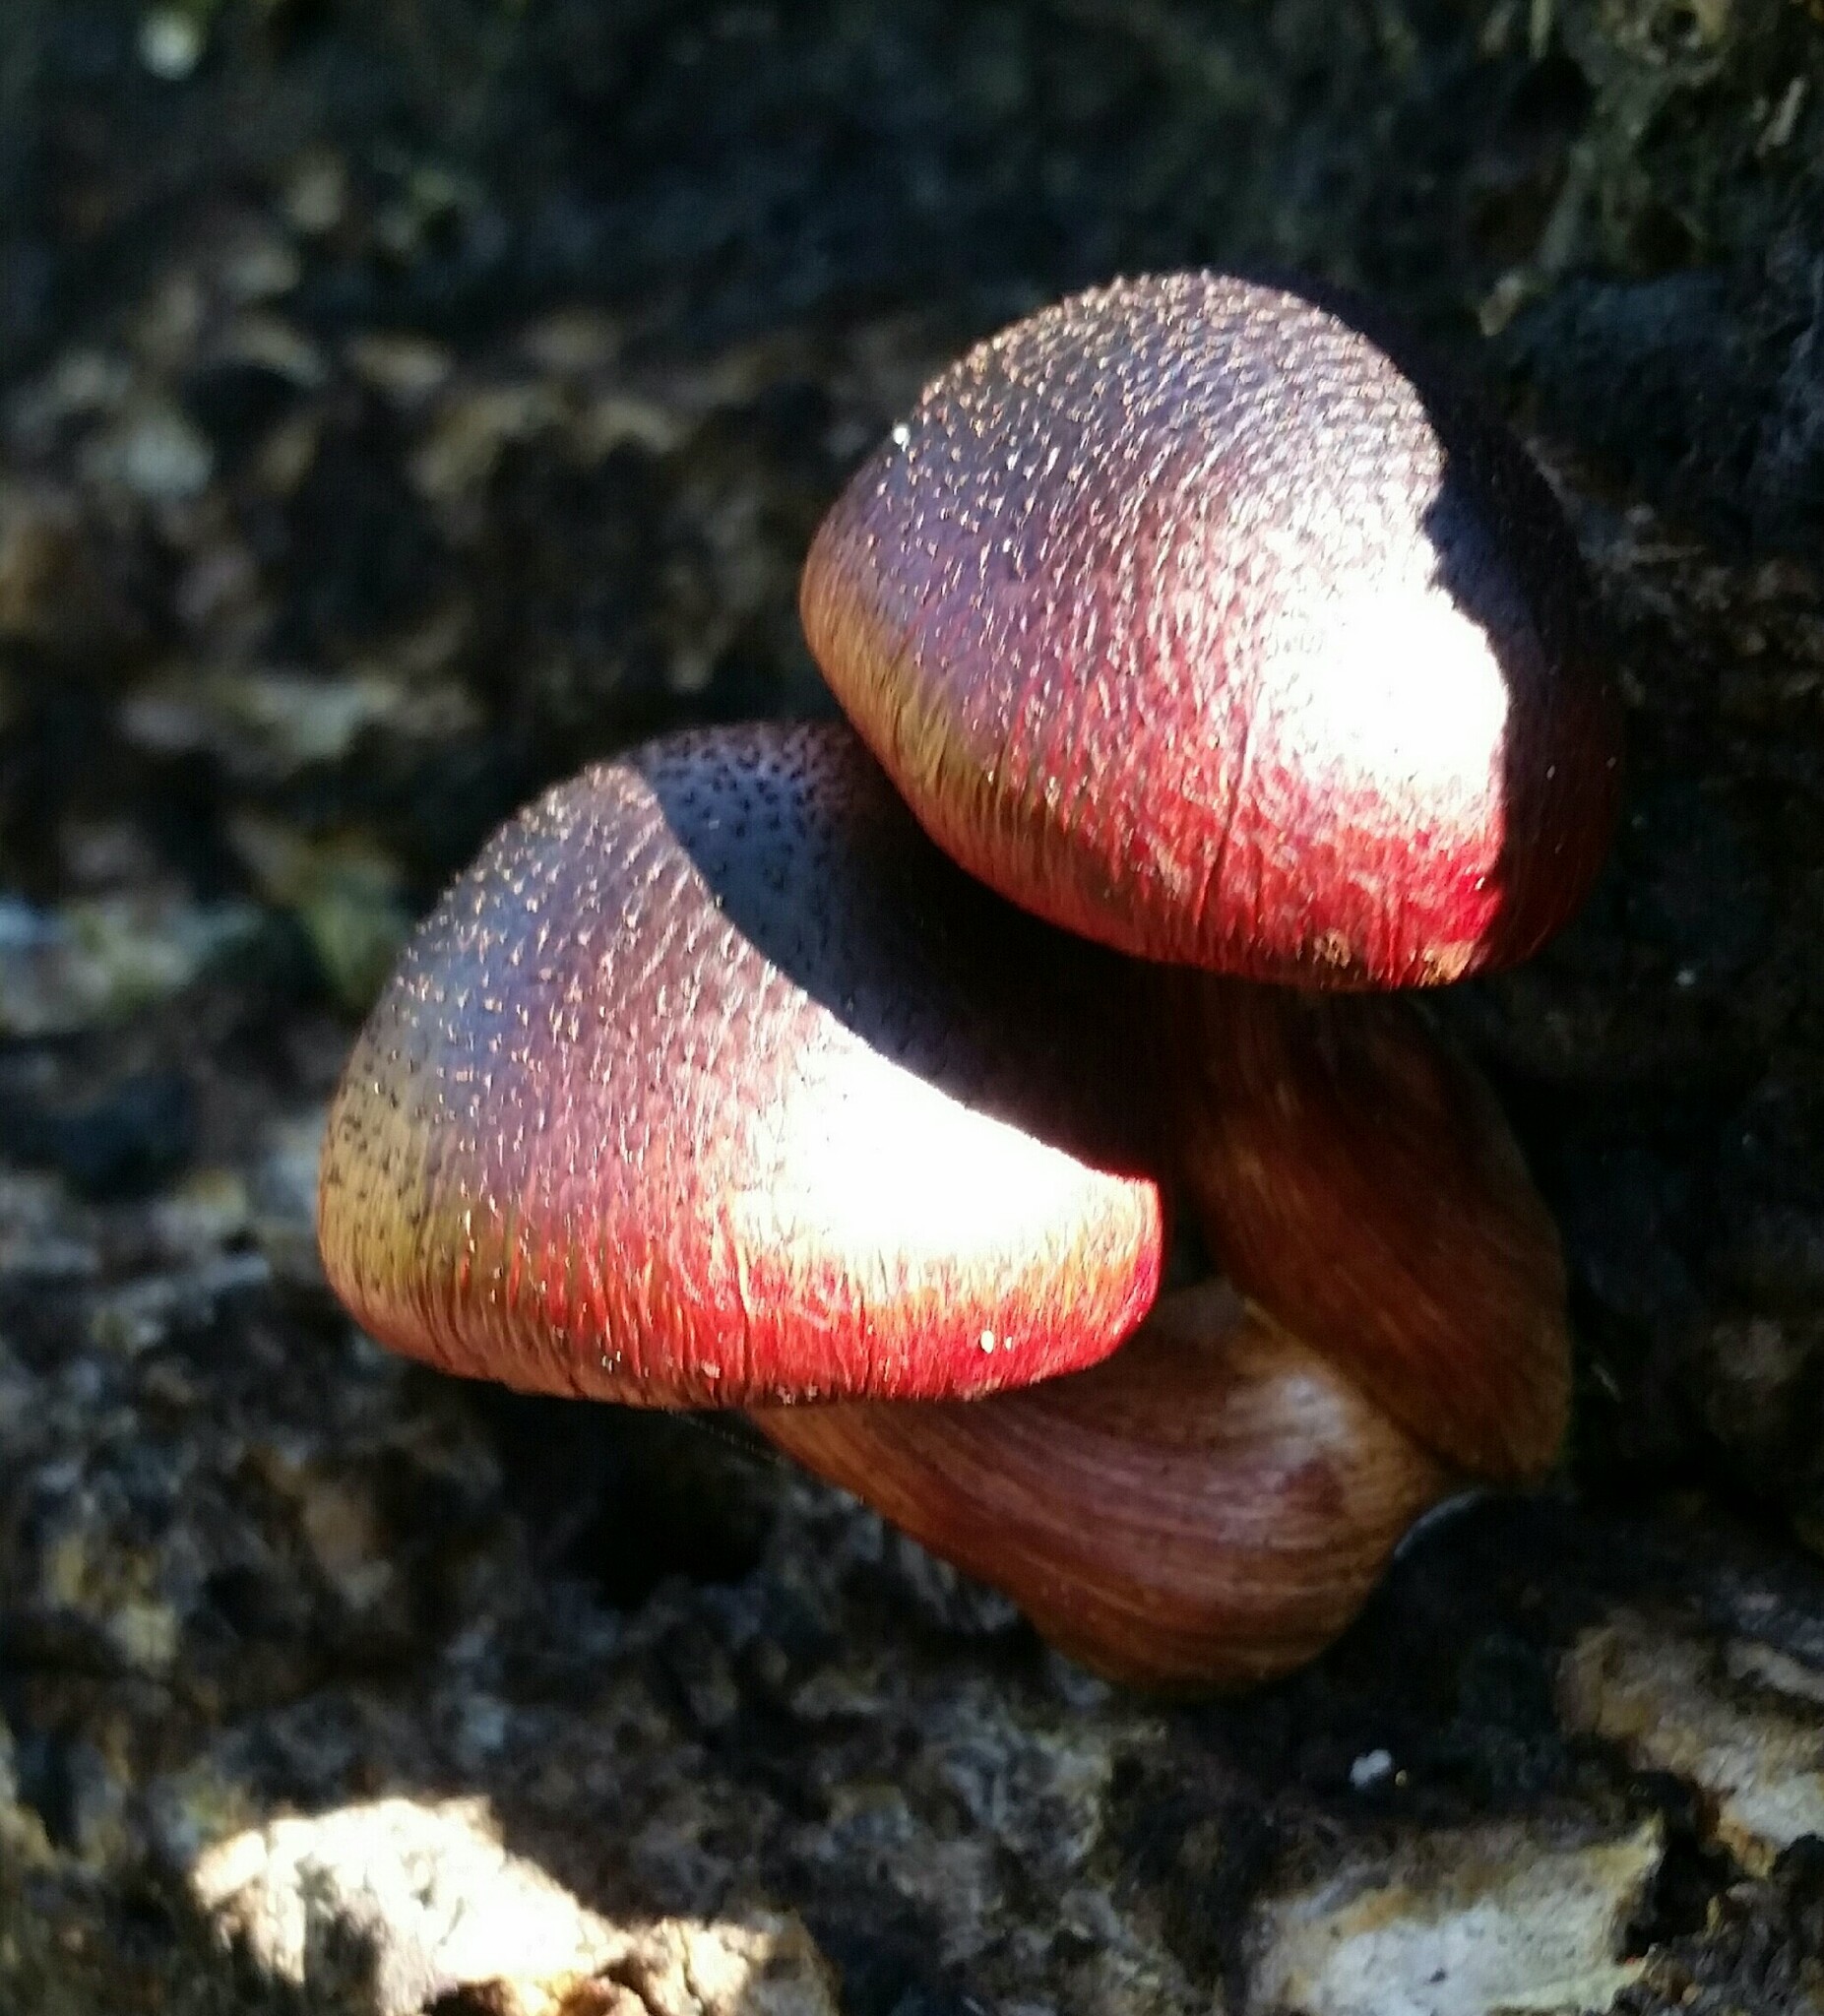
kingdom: Fungi
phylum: Basidiomycota
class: Agaricomycetes
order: Agaricales
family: Hymenogastraceae
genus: Gymnopilus
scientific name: Gymnopilus luteofolius
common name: Yellow-gilled gymnopilus
